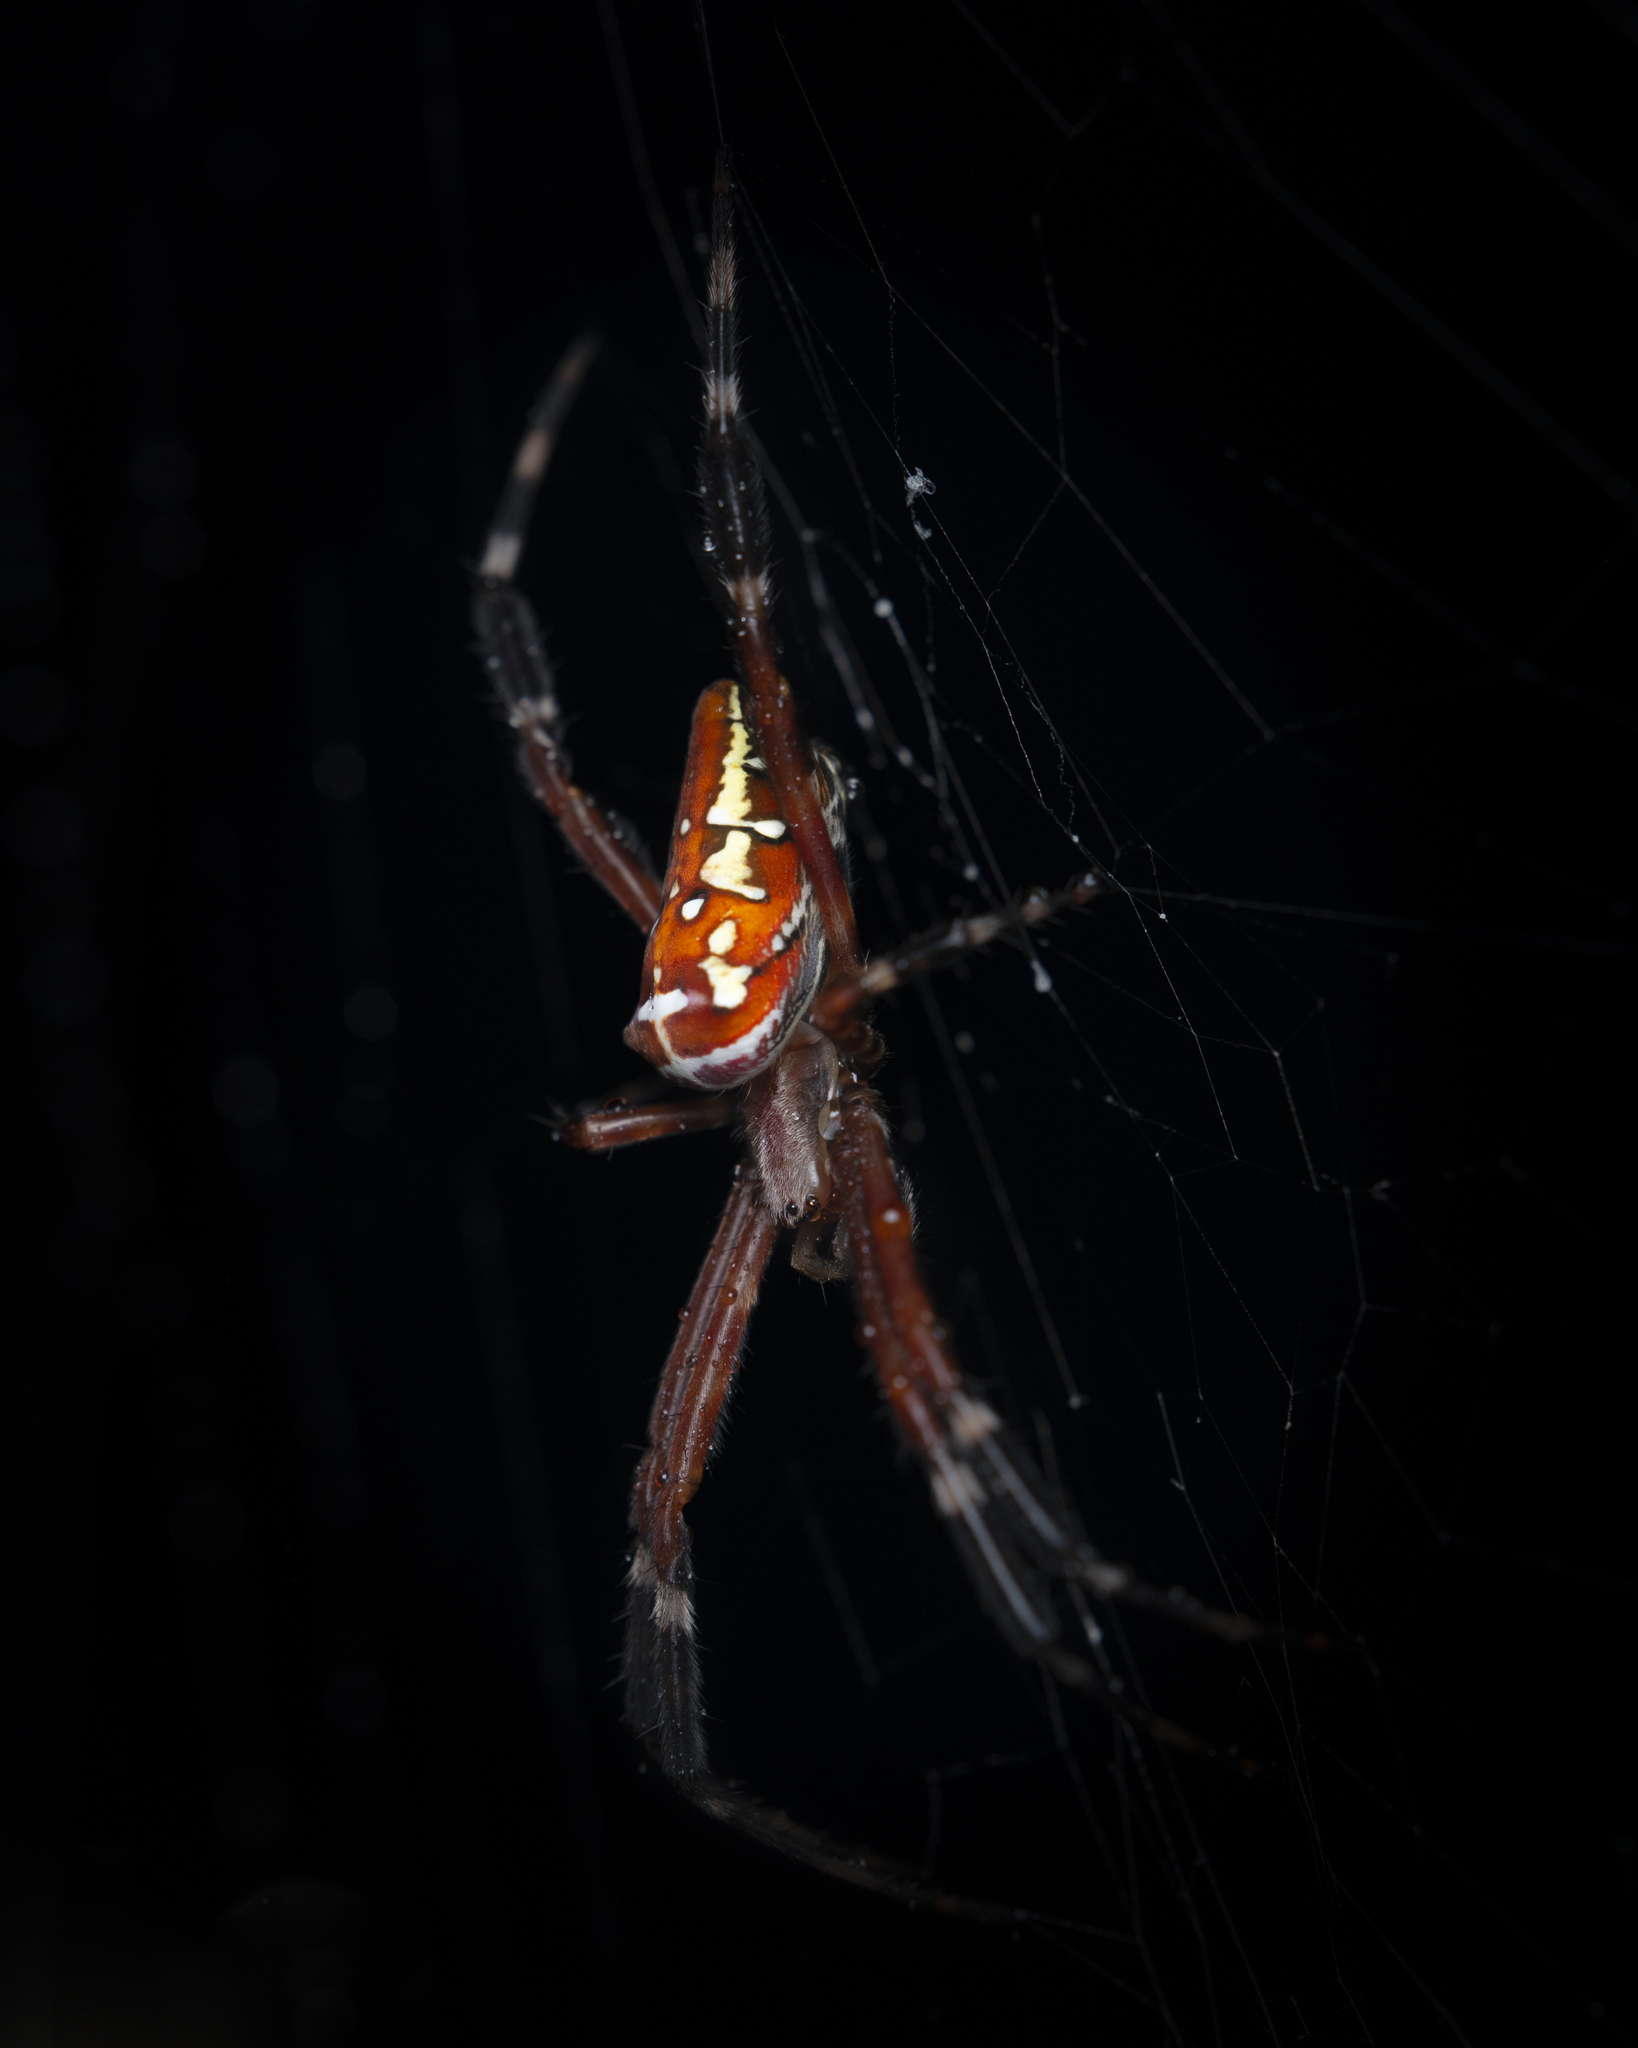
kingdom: Animalia
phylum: Arthropoda
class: Arachnida
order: Araneae
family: Araneidae
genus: Argiope
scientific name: Argiope ocula
